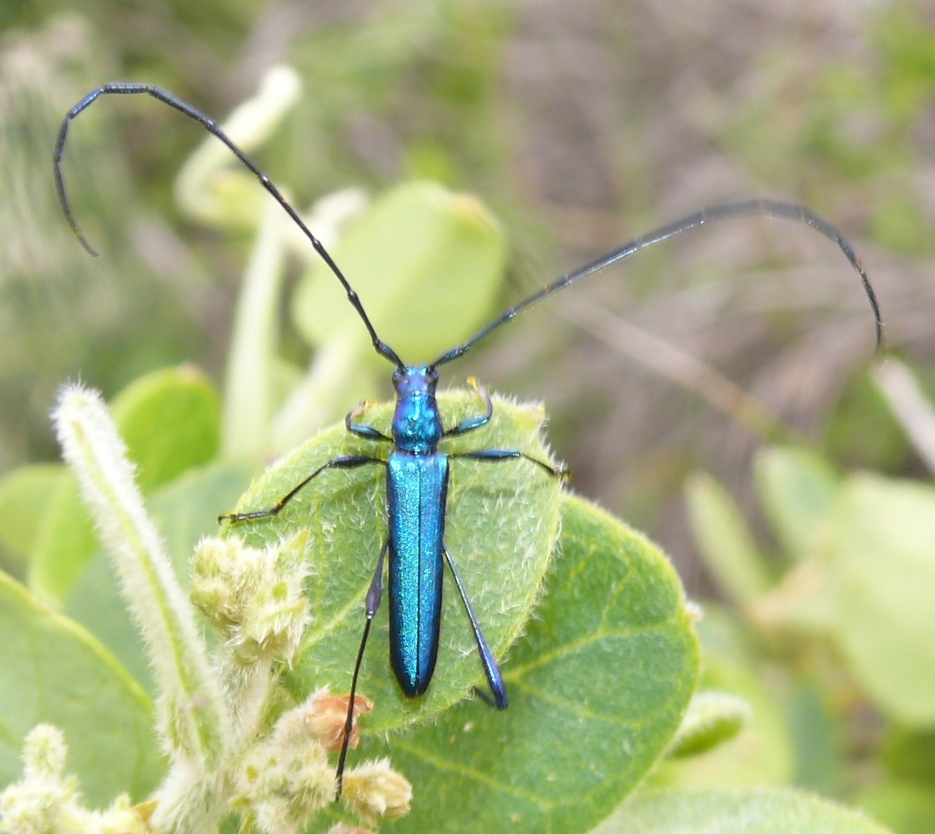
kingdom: Animalia
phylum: Arthropoda
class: Insecta
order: Coleoptera
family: Cerambycidae
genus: Promeces
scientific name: Promeces longipes
